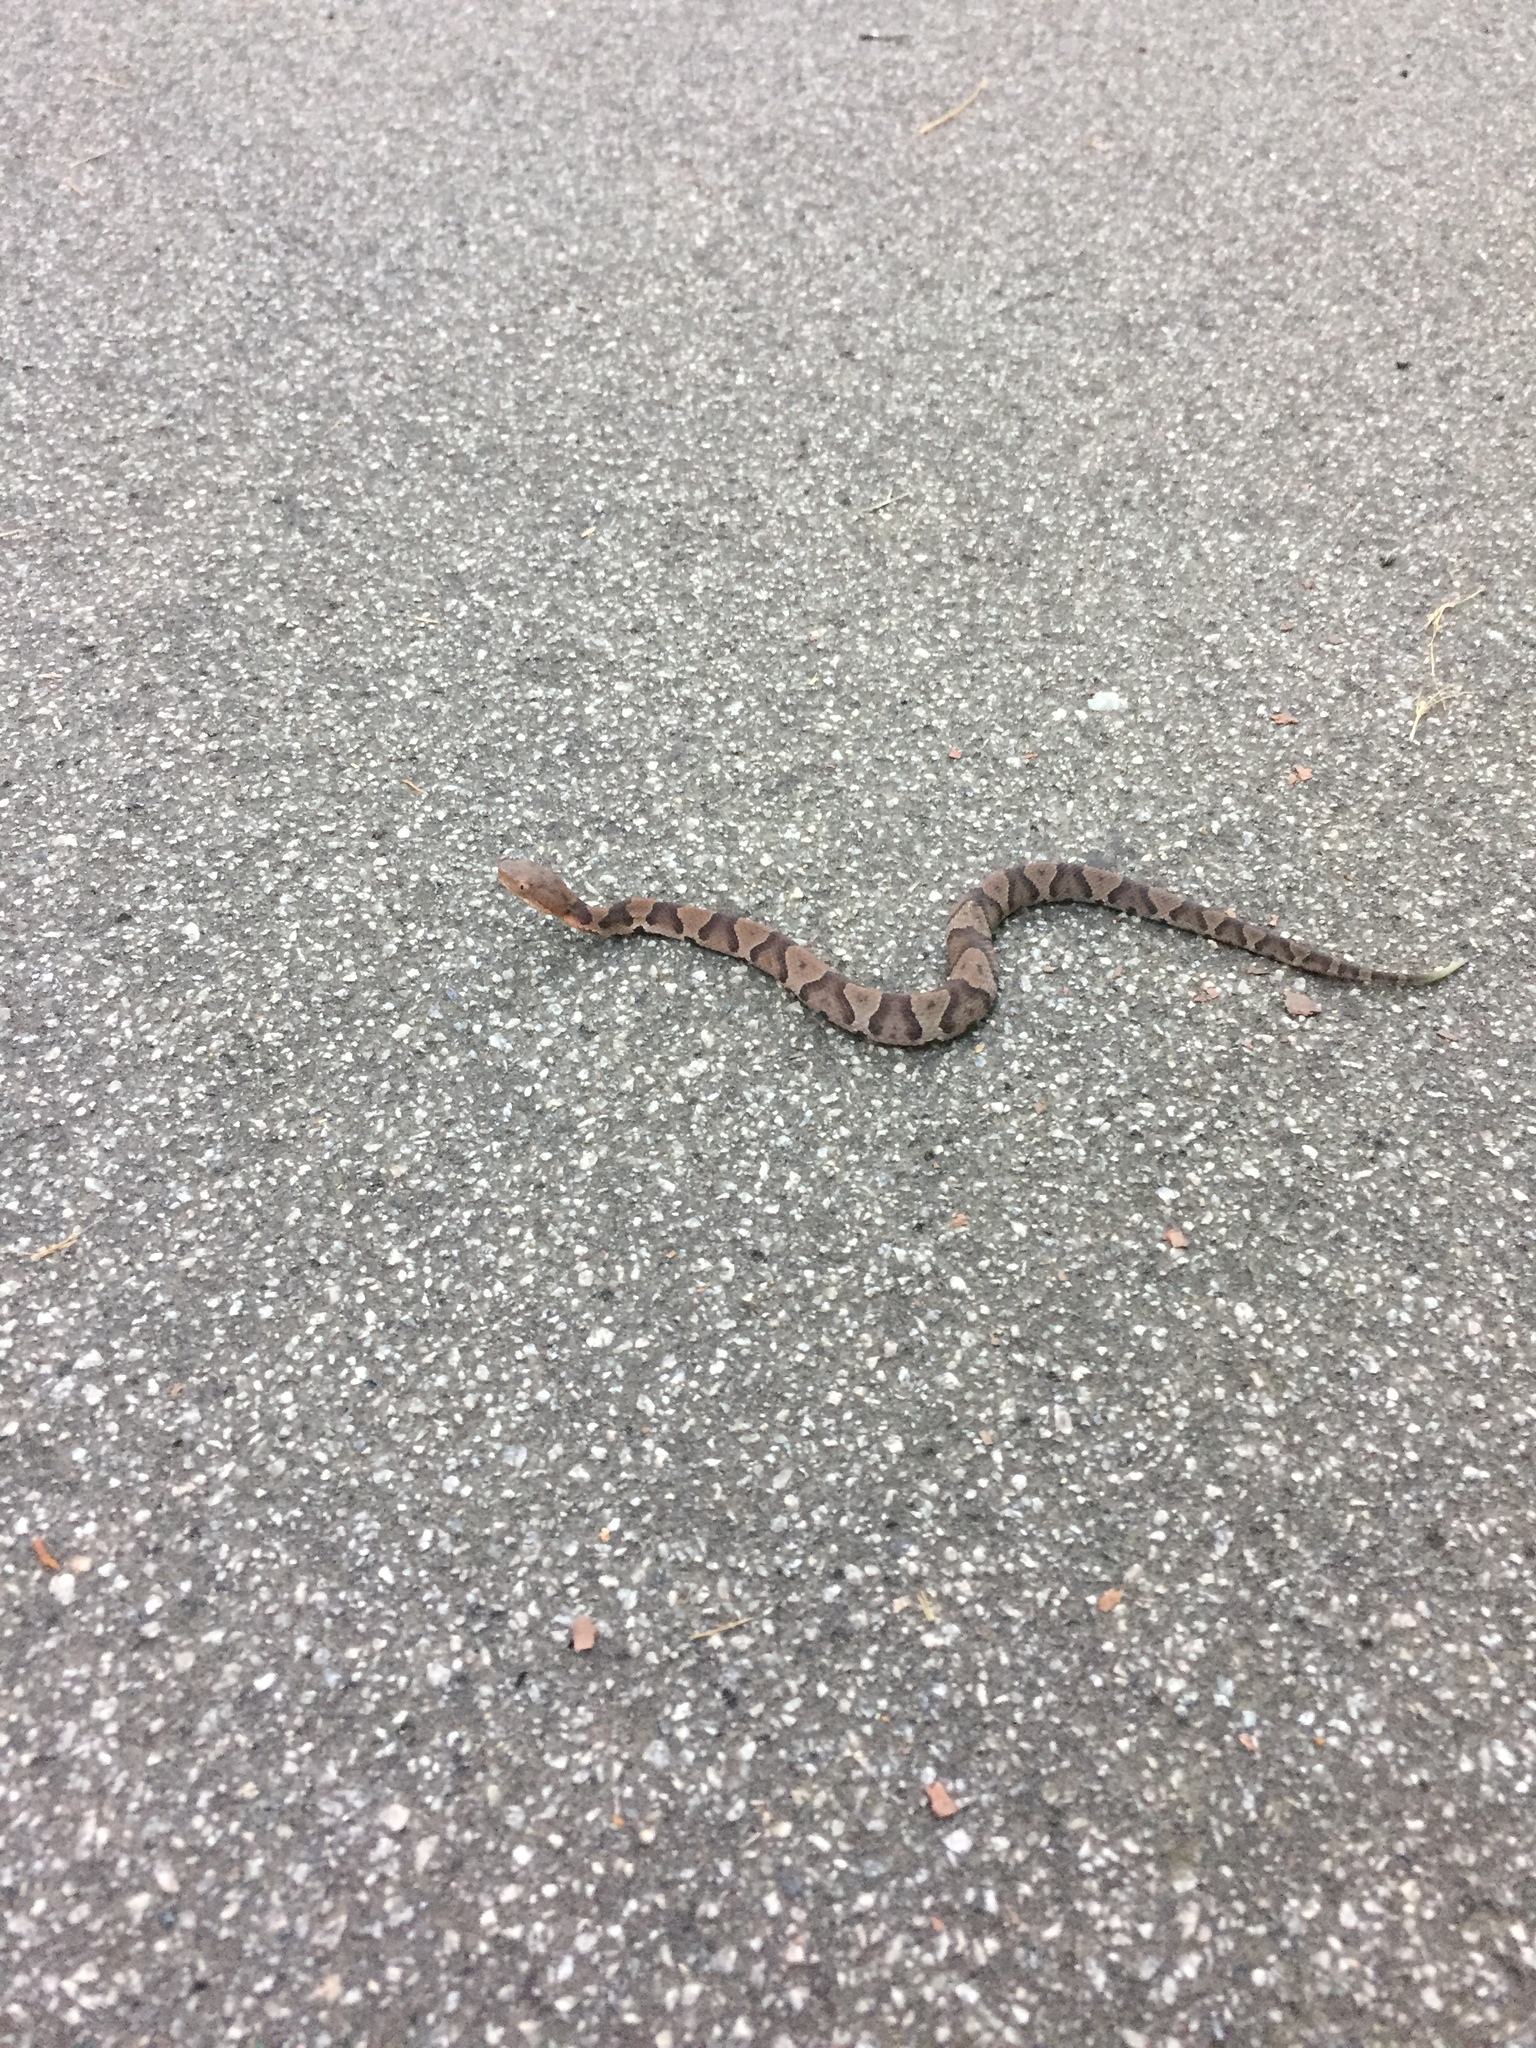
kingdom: Animalia
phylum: Chordata
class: Squamata
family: Viperidae
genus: Agkistrodon
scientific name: Agkistrodon contortrix
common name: Northern copperhead
